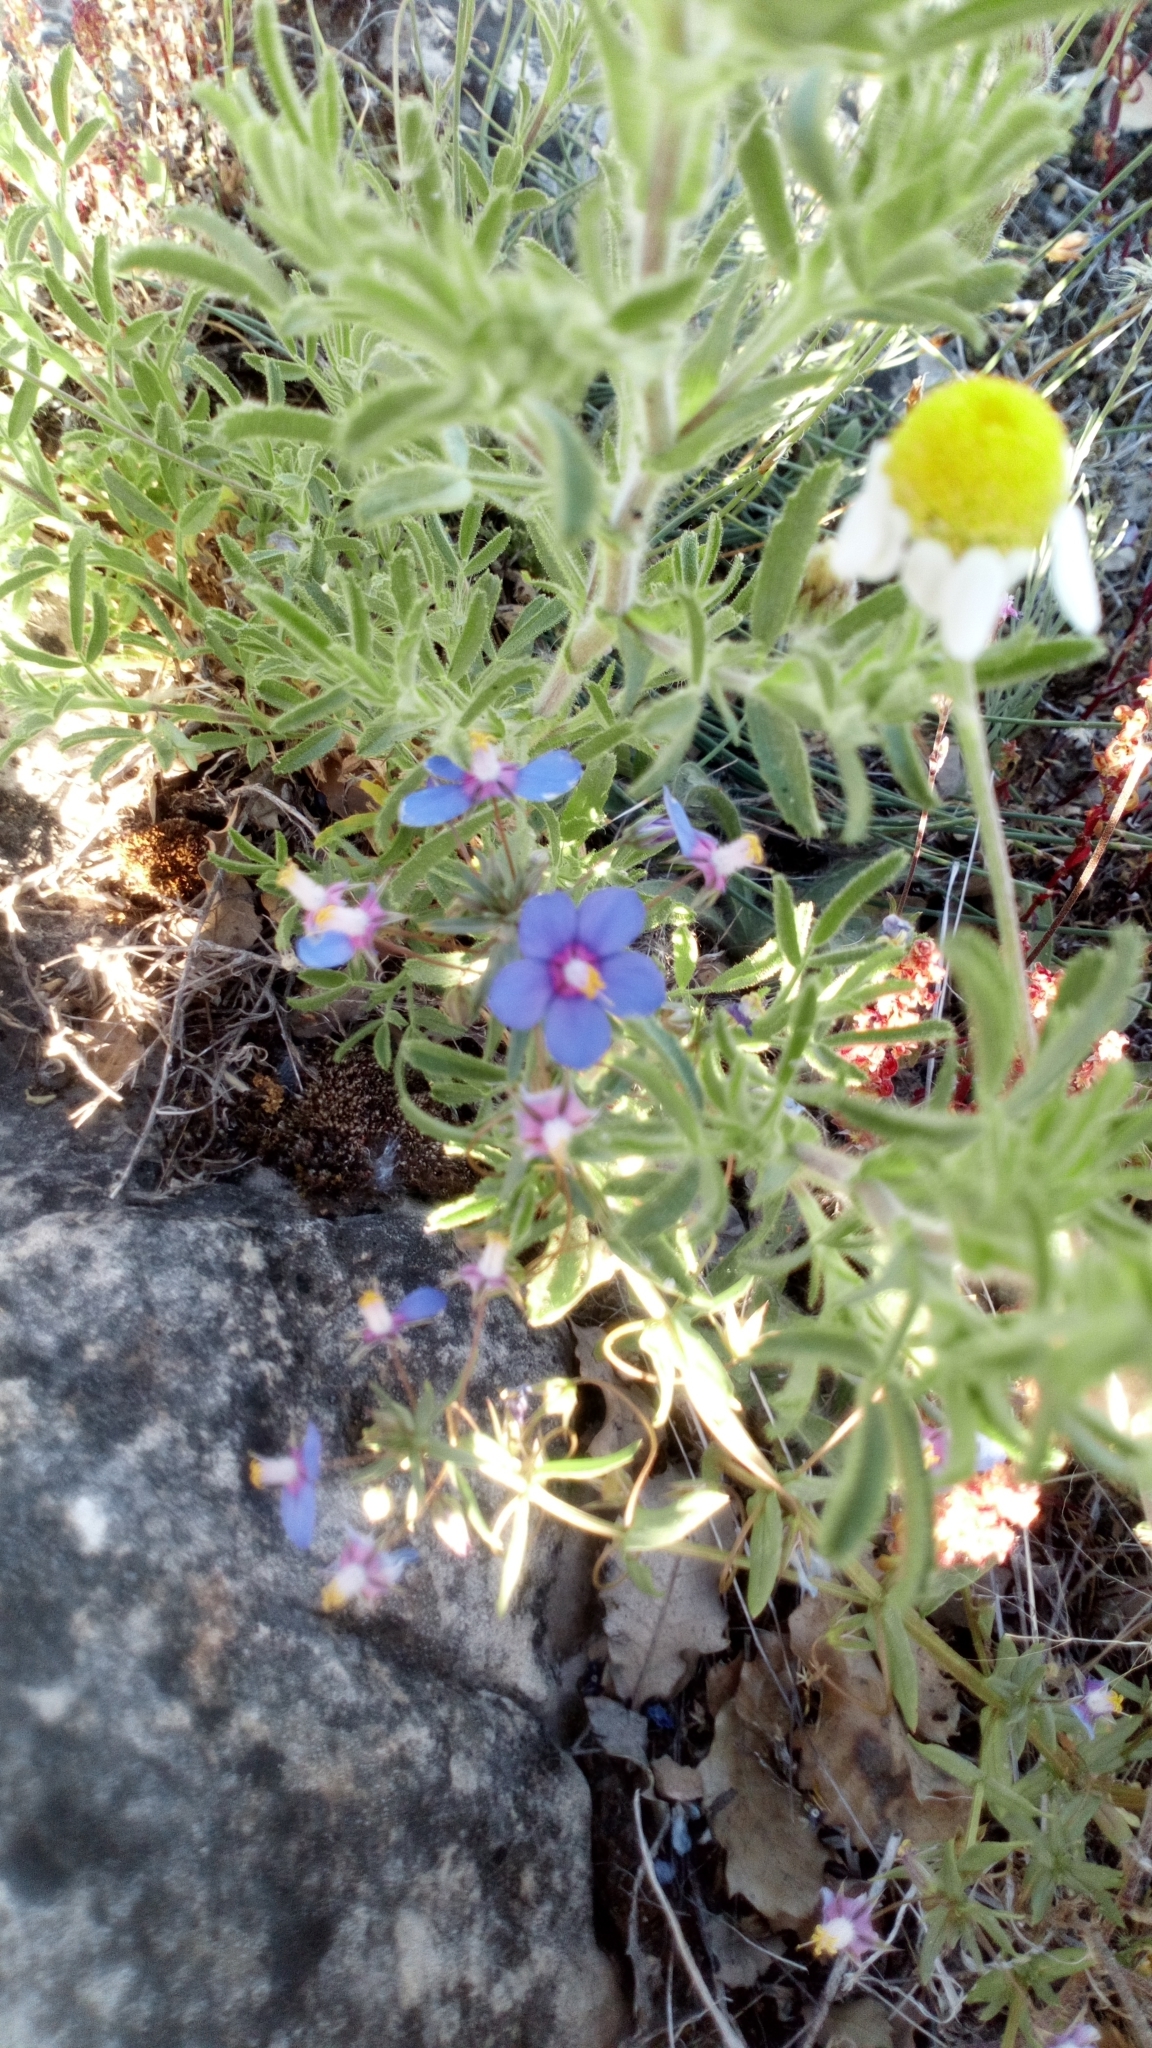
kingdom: Plantae
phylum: Tracheophyta
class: Magnoliopsida
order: Ericales
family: Primulaceae
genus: Lysimachia
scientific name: Lysimachia monelli
